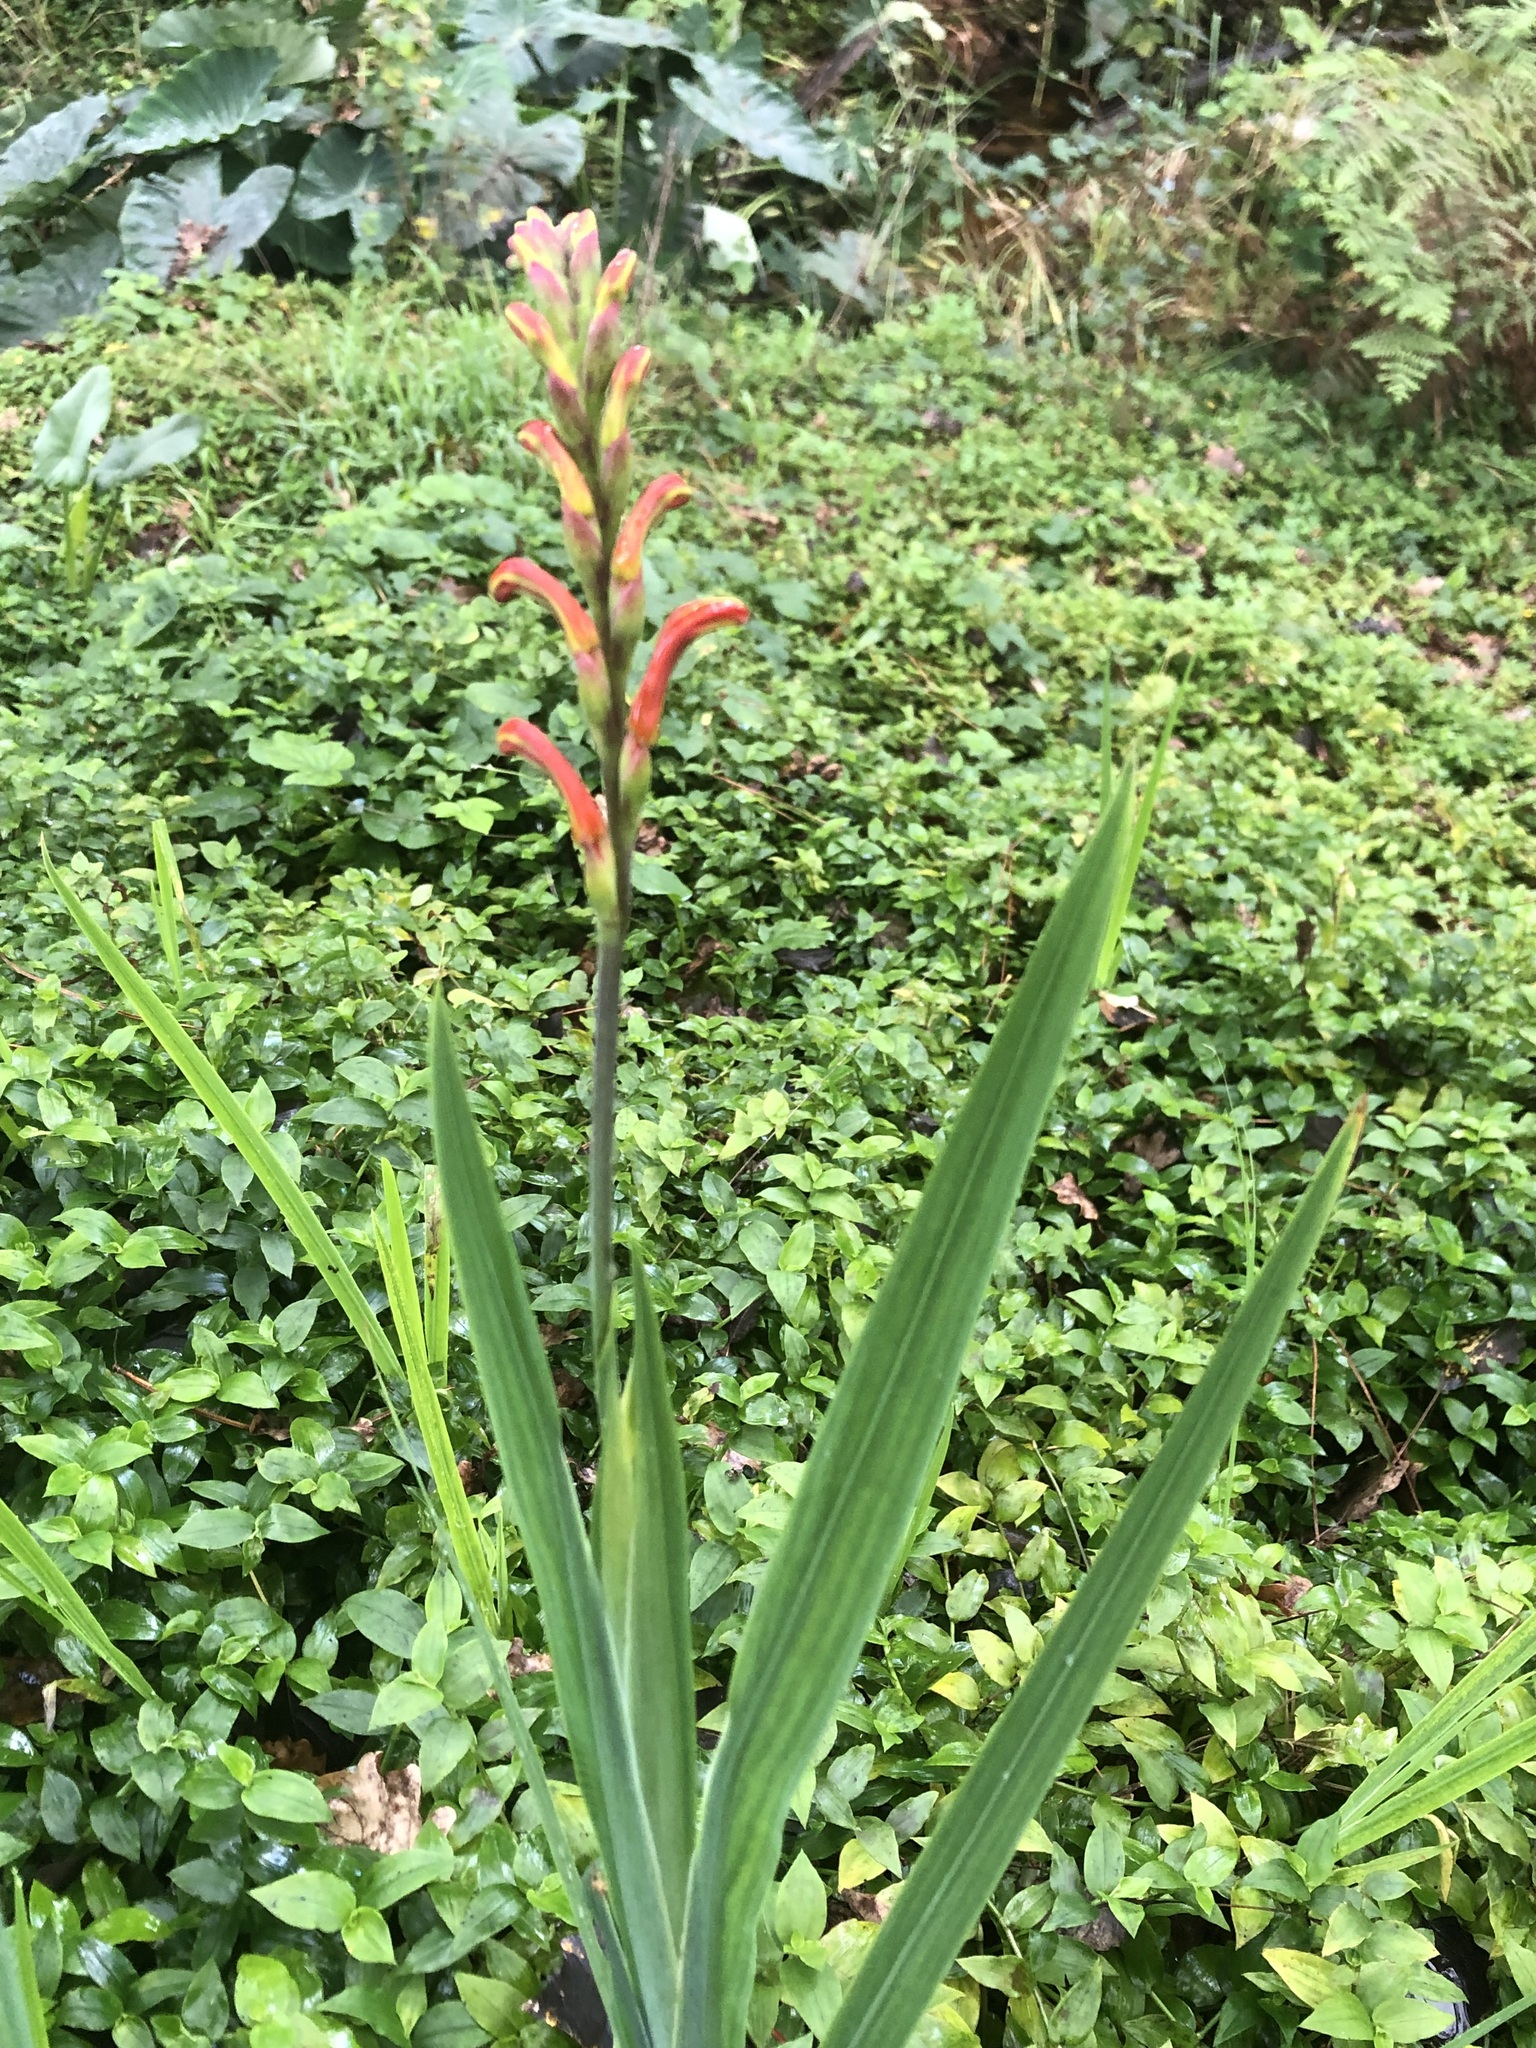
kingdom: Plantae
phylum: Tracheophyta
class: Liliopsida
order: Asparagales
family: Iridaceae
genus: Chasmanthe
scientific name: Chasmanthe aethiopica
